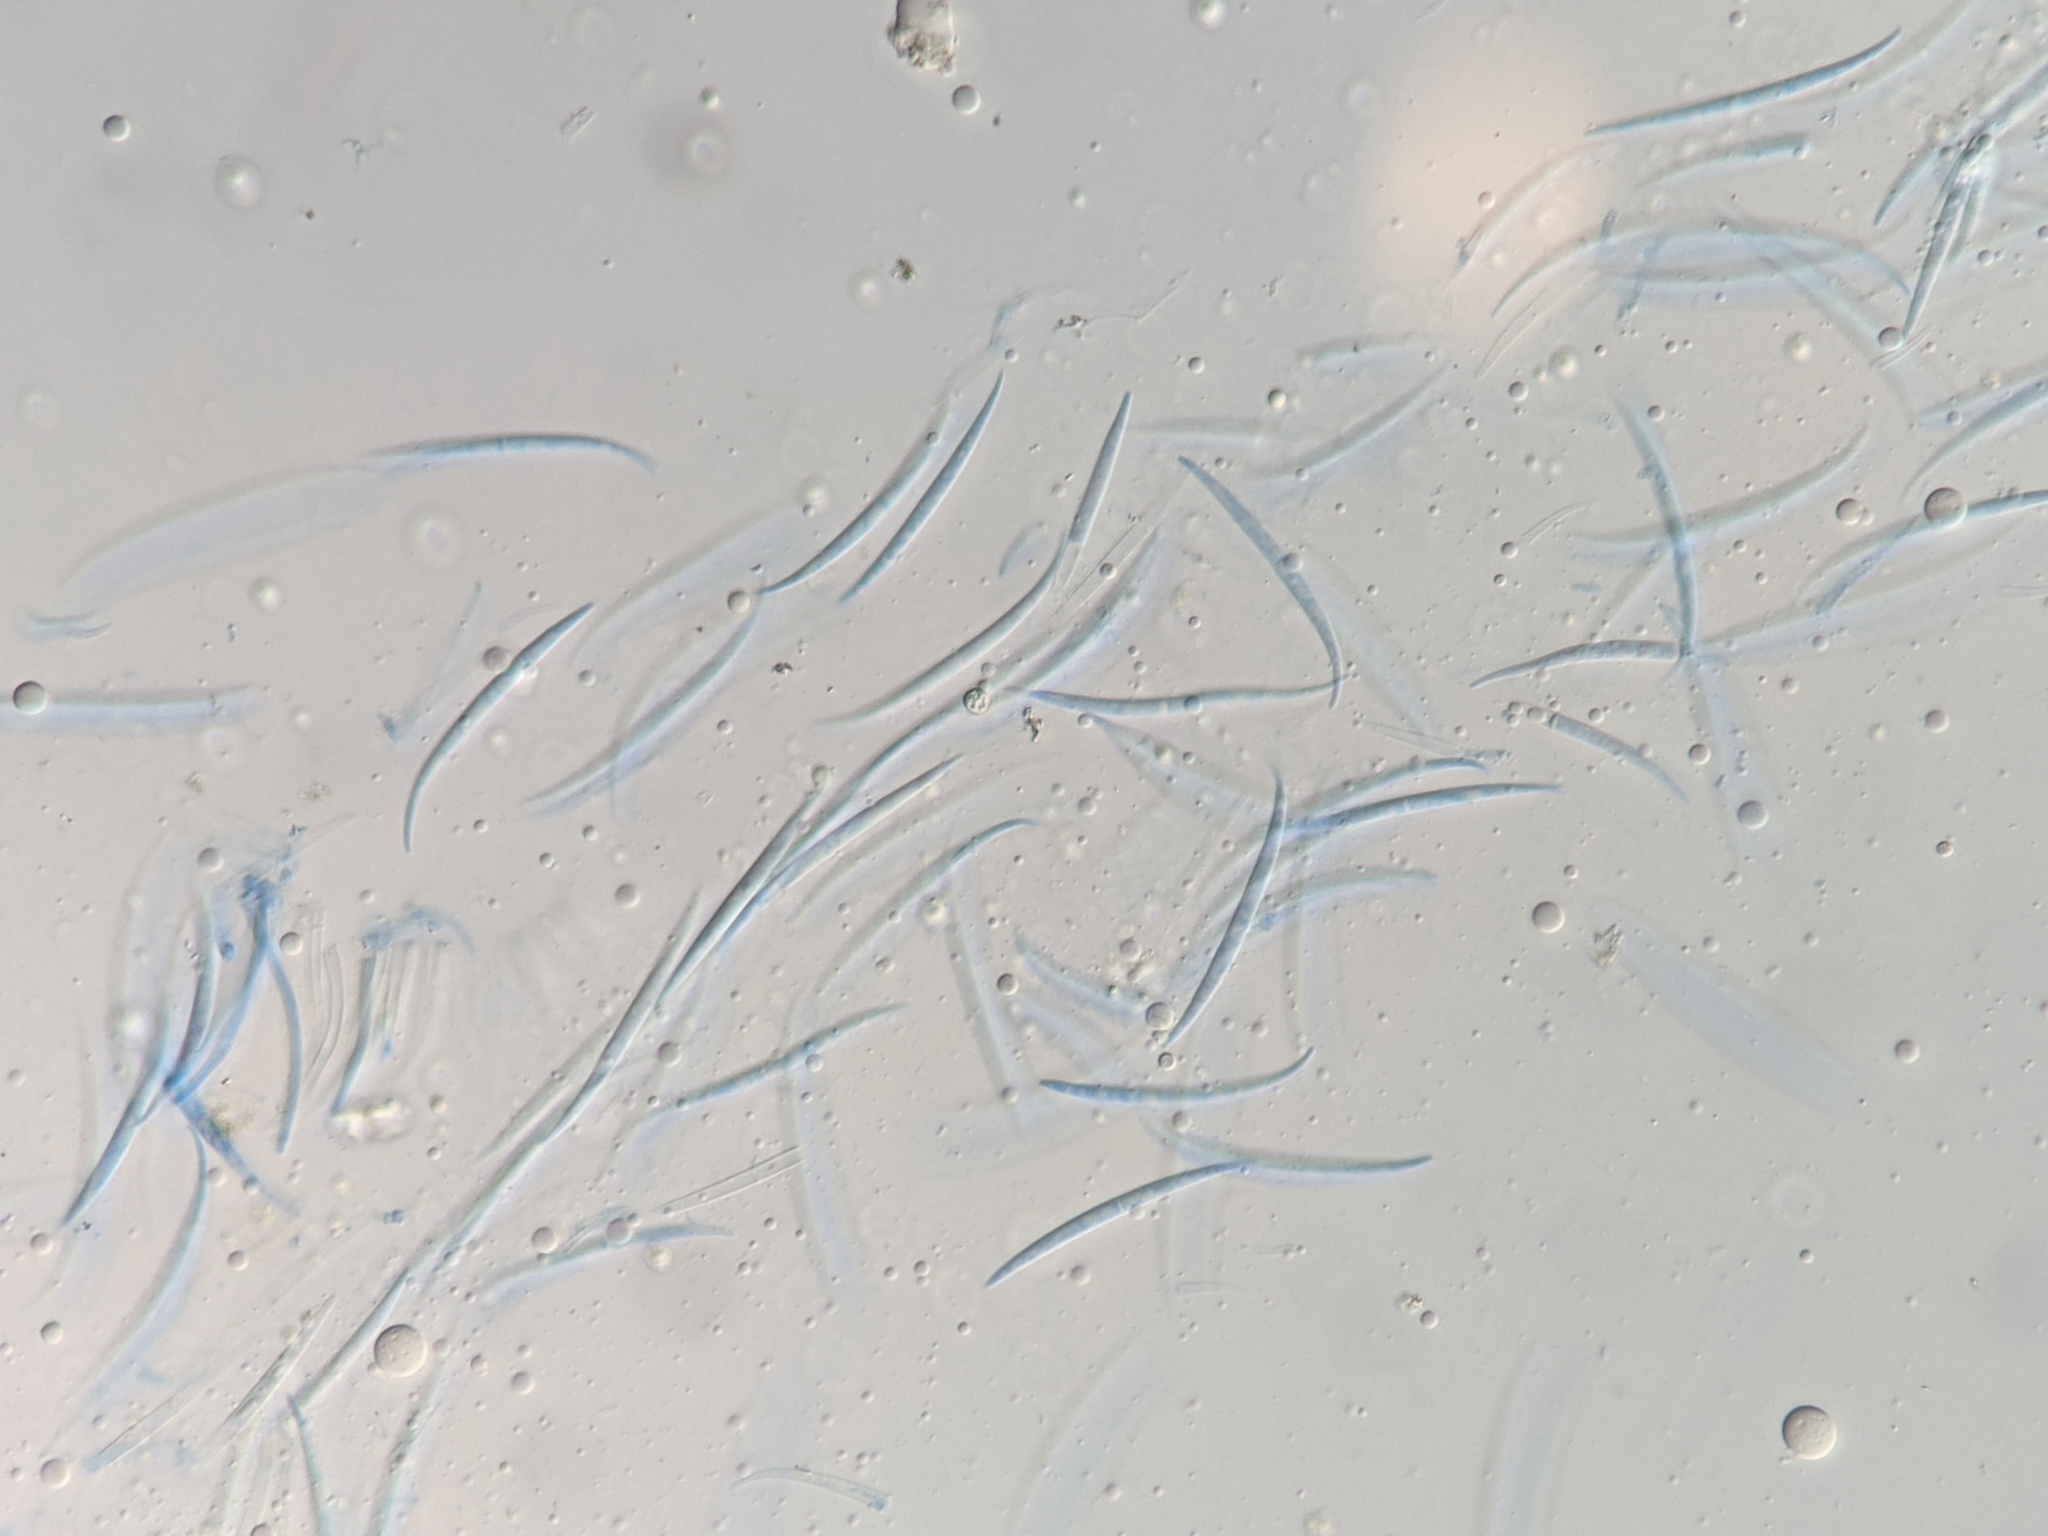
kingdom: Fungi
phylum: Ascomycota
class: Leotiomycetes
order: Leotiales
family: Tympanidaceae
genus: Durandiella
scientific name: Durandiella fraxini
